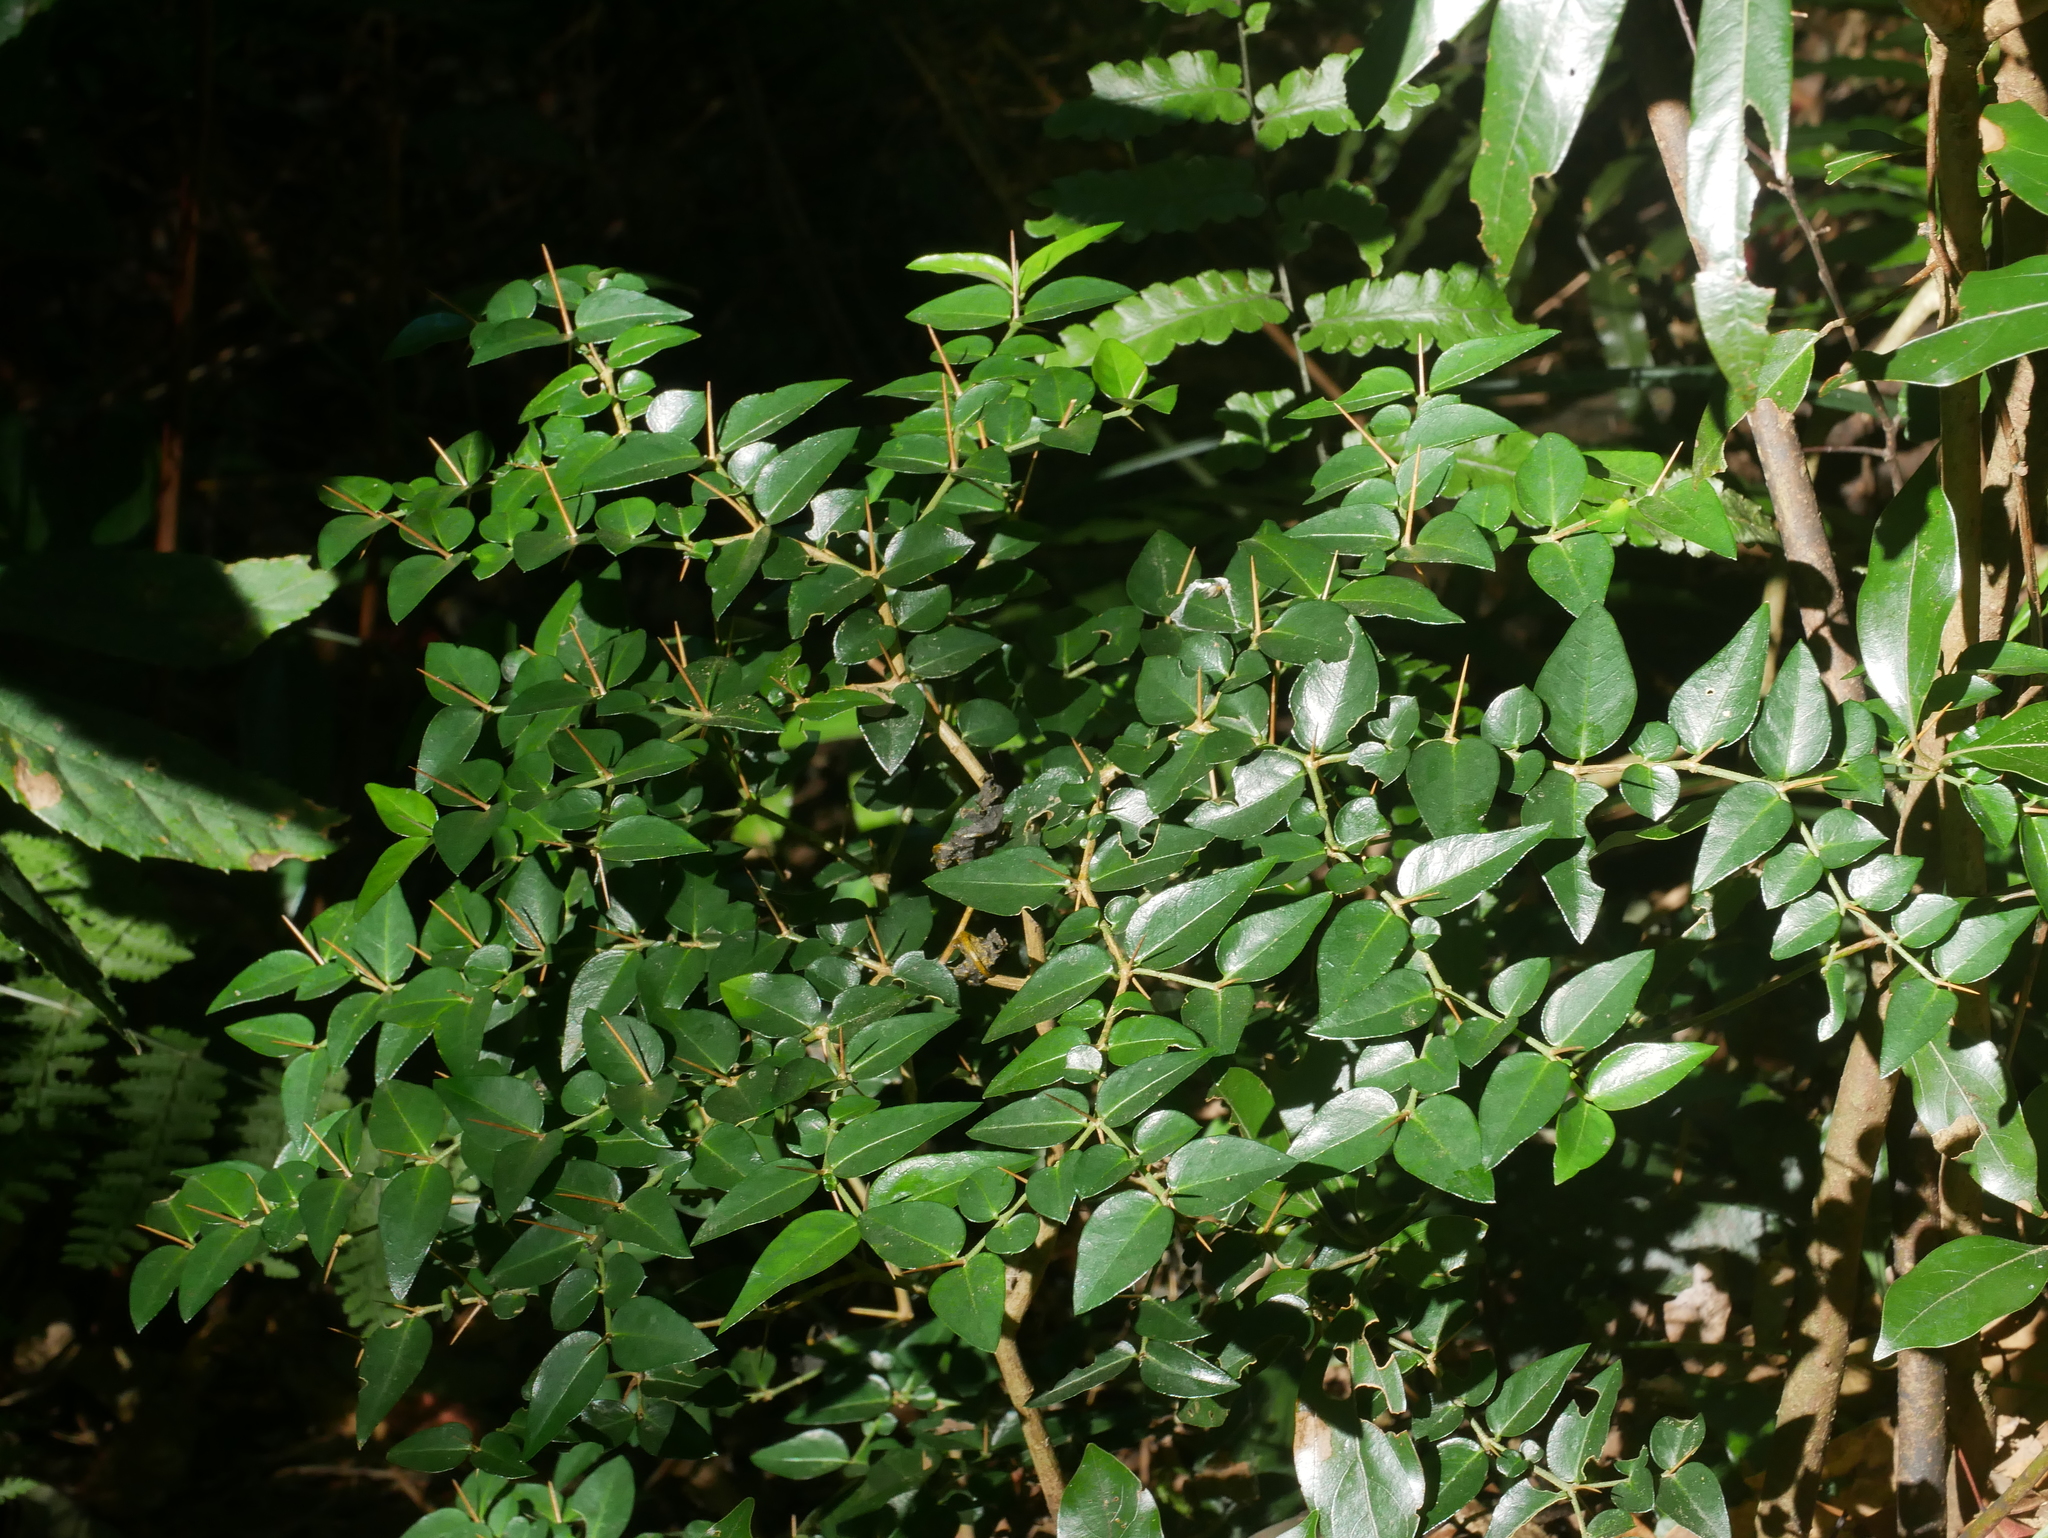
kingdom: Plantae
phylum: Tracheophyta
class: Magnoliopsida
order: Gentianales
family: Rubiaceae
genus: Damnacanthus
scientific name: Damnacanthus indicus
